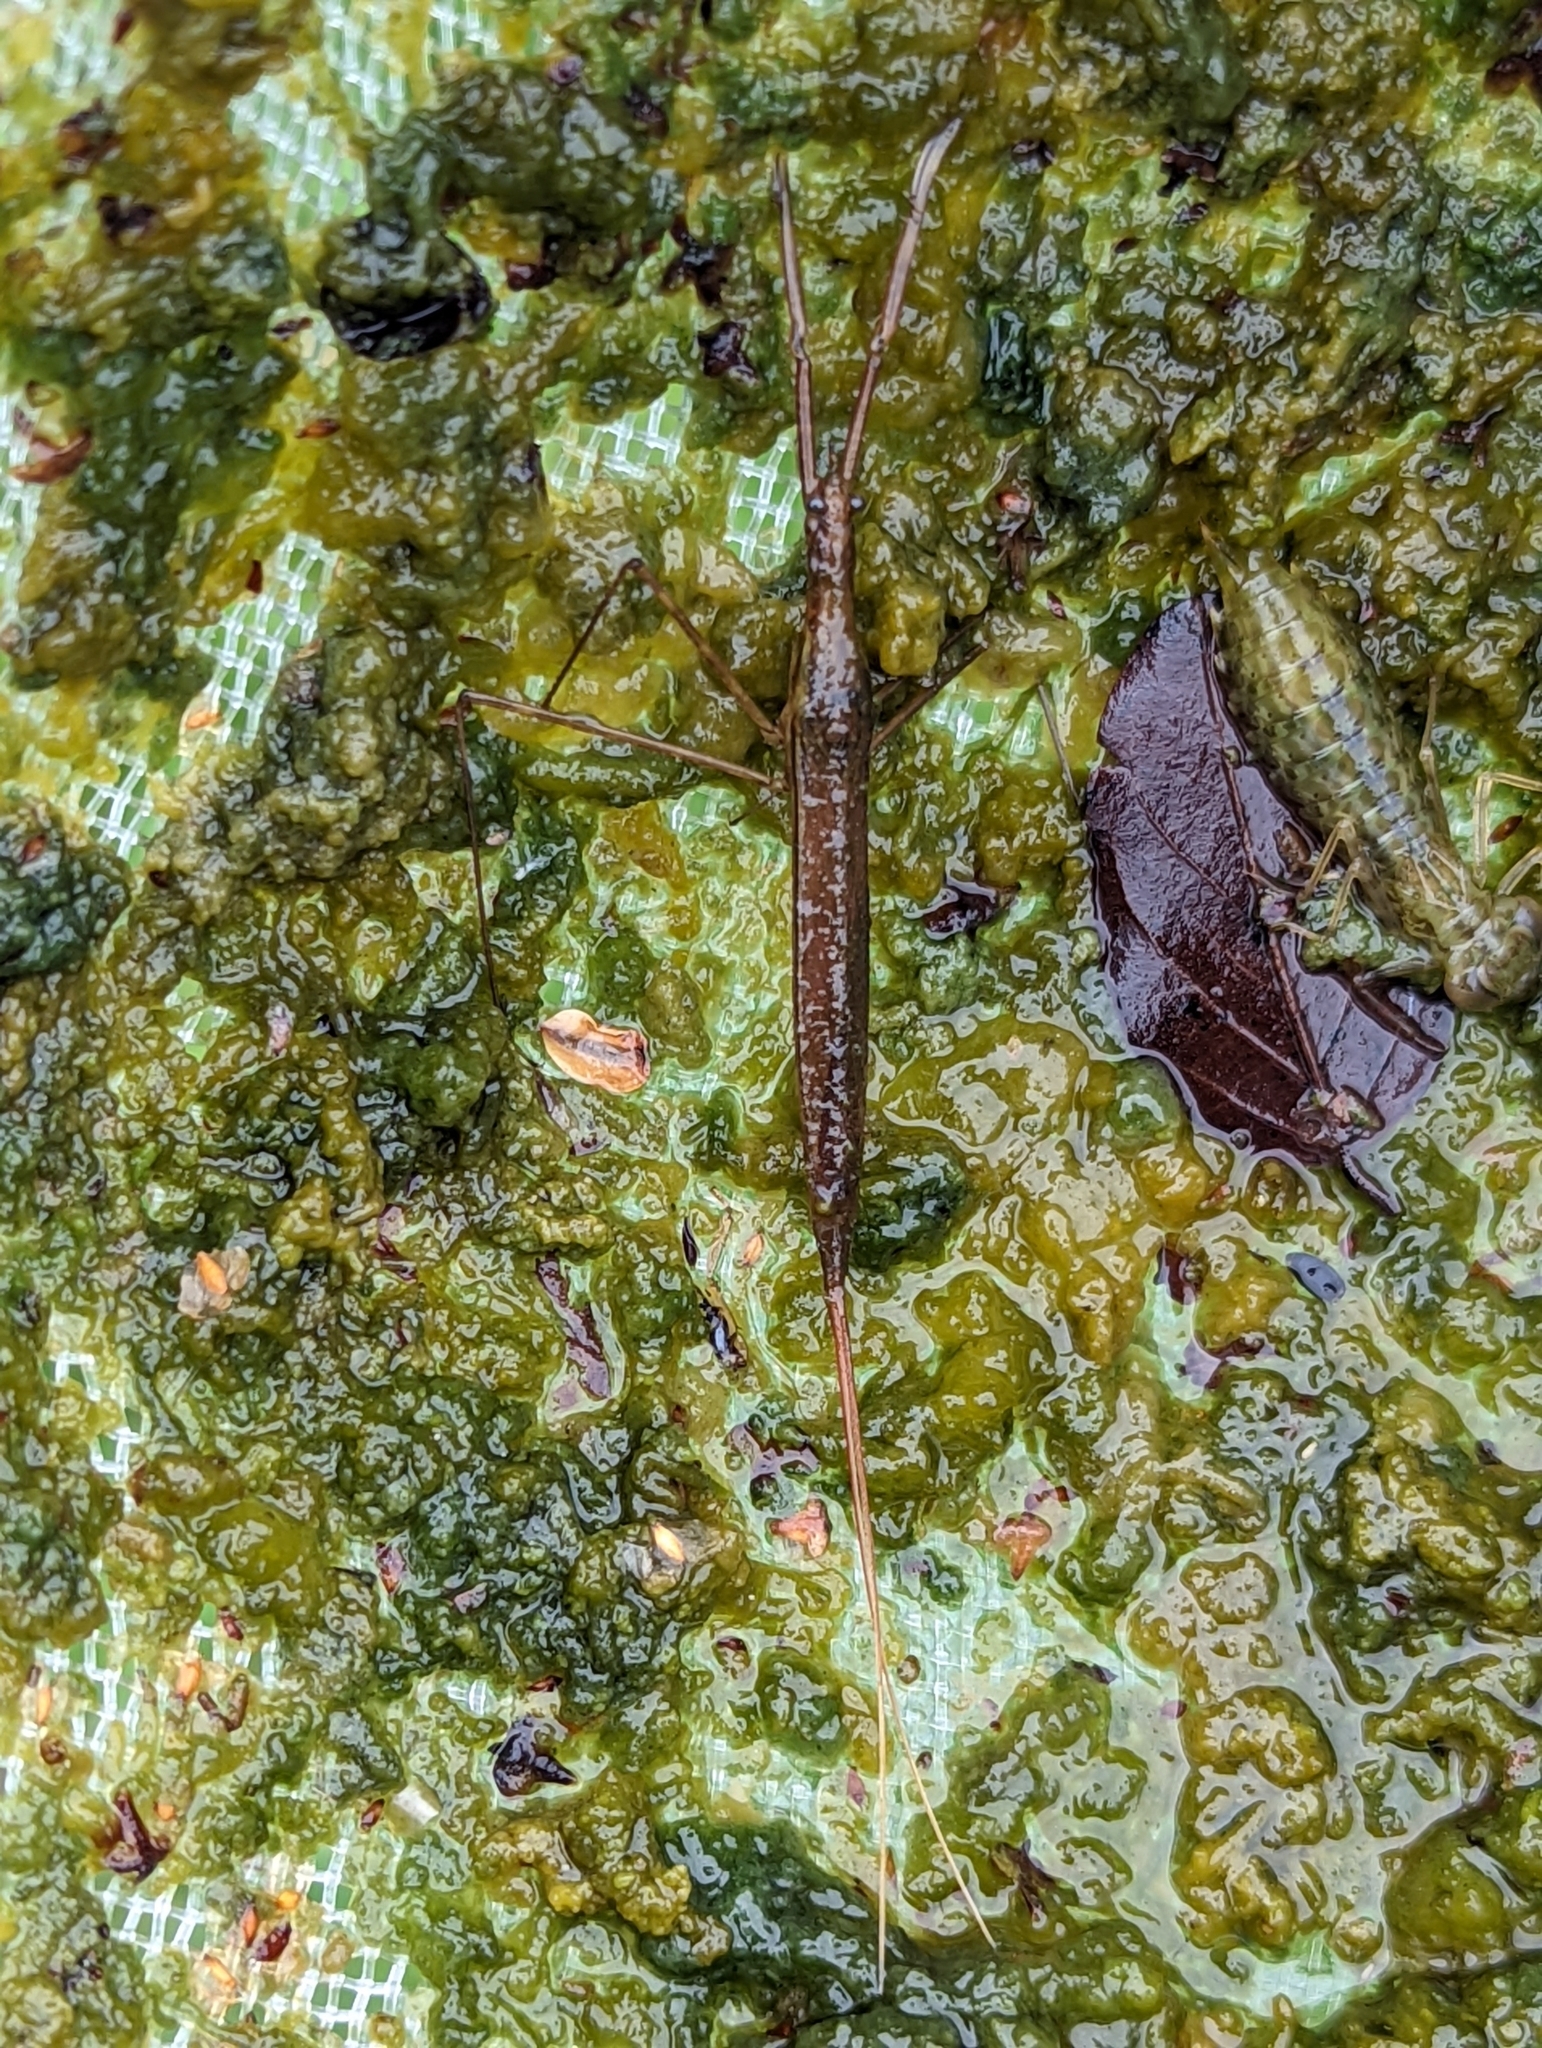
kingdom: Animalia
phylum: Arthropoda
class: Insecta
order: Hemiptera
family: Nepidae
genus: Ranatra
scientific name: Ranatra linearis
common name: Water stick insect
